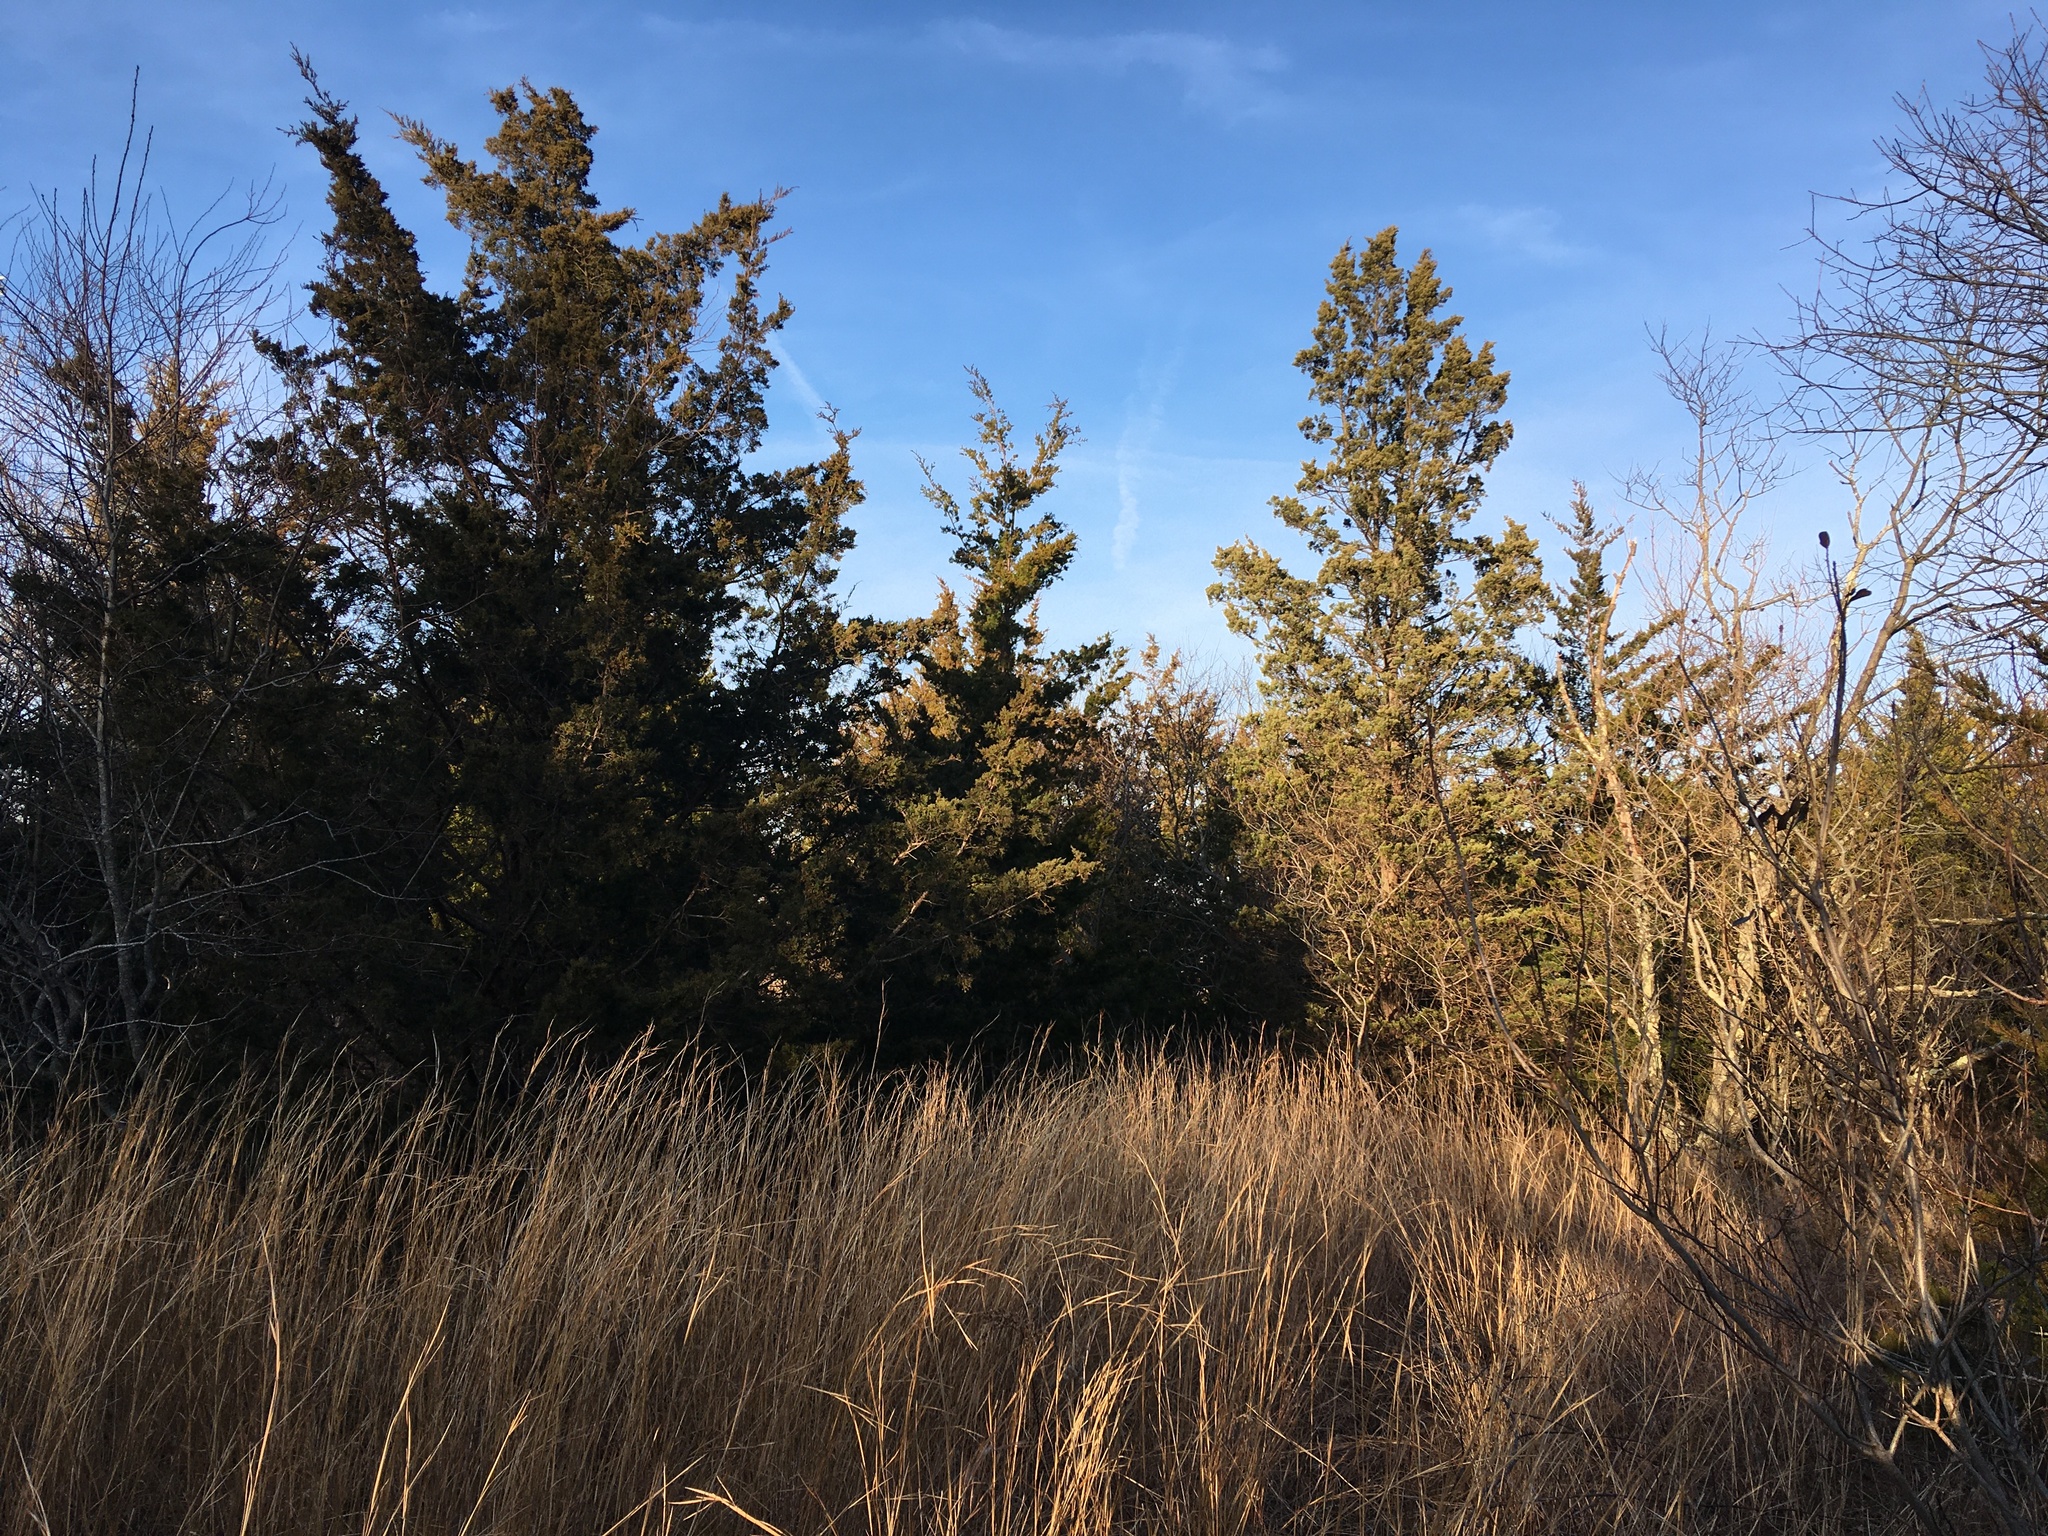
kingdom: Plantae
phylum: Tracheophyta
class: Pinopsida
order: Pinales
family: Cupressaceae
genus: Juniperus
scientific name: Juniperus virginiana
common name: Red juniper
